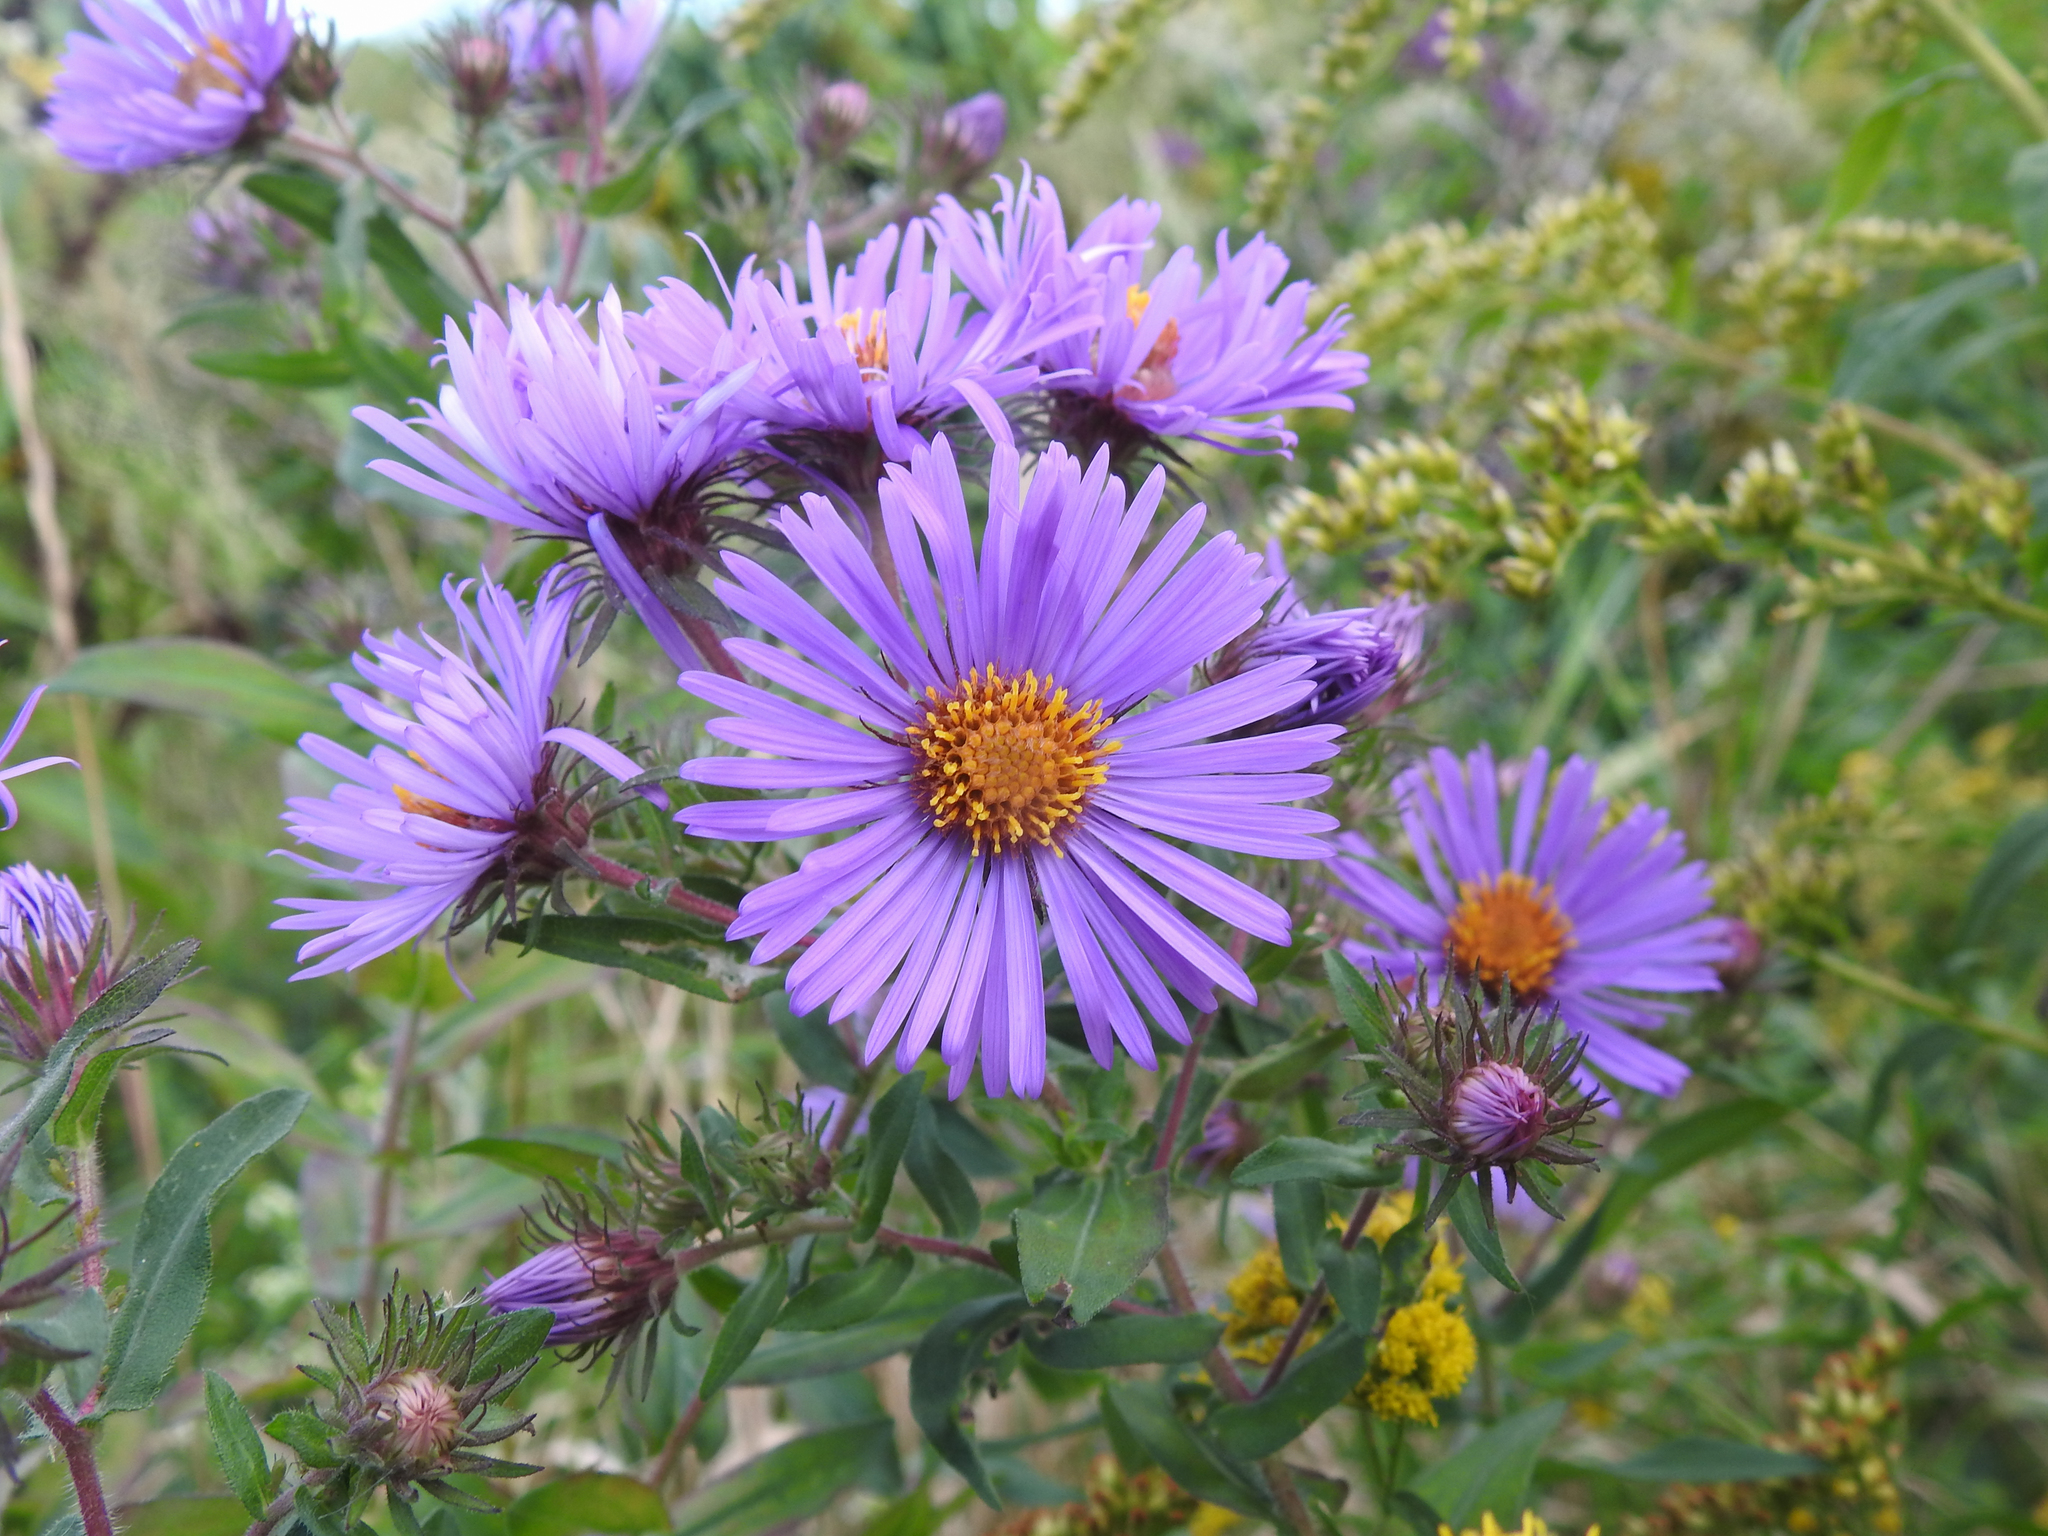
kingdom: Plantae
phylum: Tracheophyta
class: Magnoliopsida
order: Asterales
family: Asteraceae
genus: Symphyotrichum
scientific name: Symphyotrichum novae-angliae
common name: Michaelmas daisy
